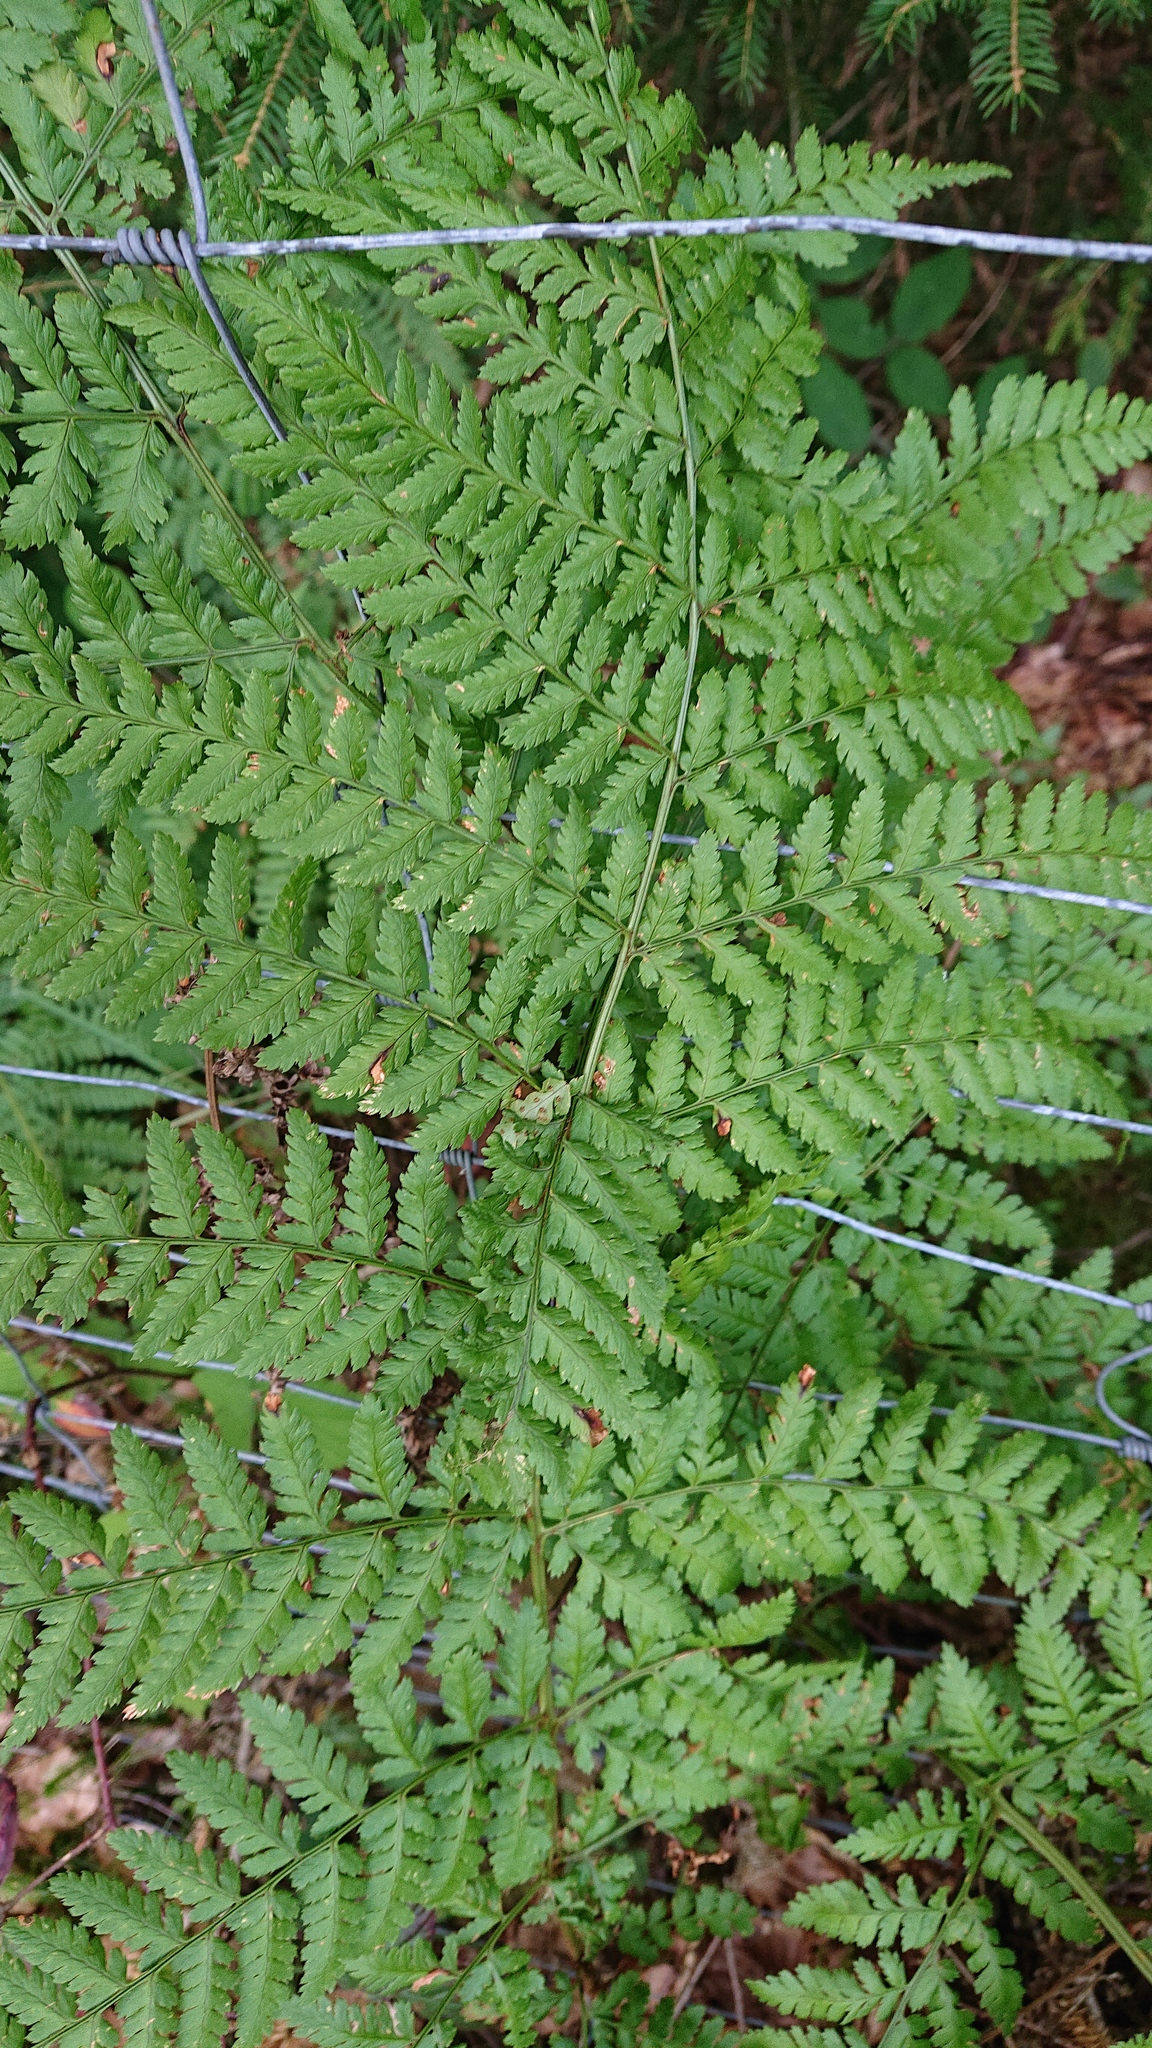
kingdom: Plantae
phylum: Tracheophyta
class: Polypodiopsida
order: Polypodiales
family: Dryopteridaceae
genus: Dryopteris
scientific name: Dryopteris dilatata
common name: Broad buckler-fern
